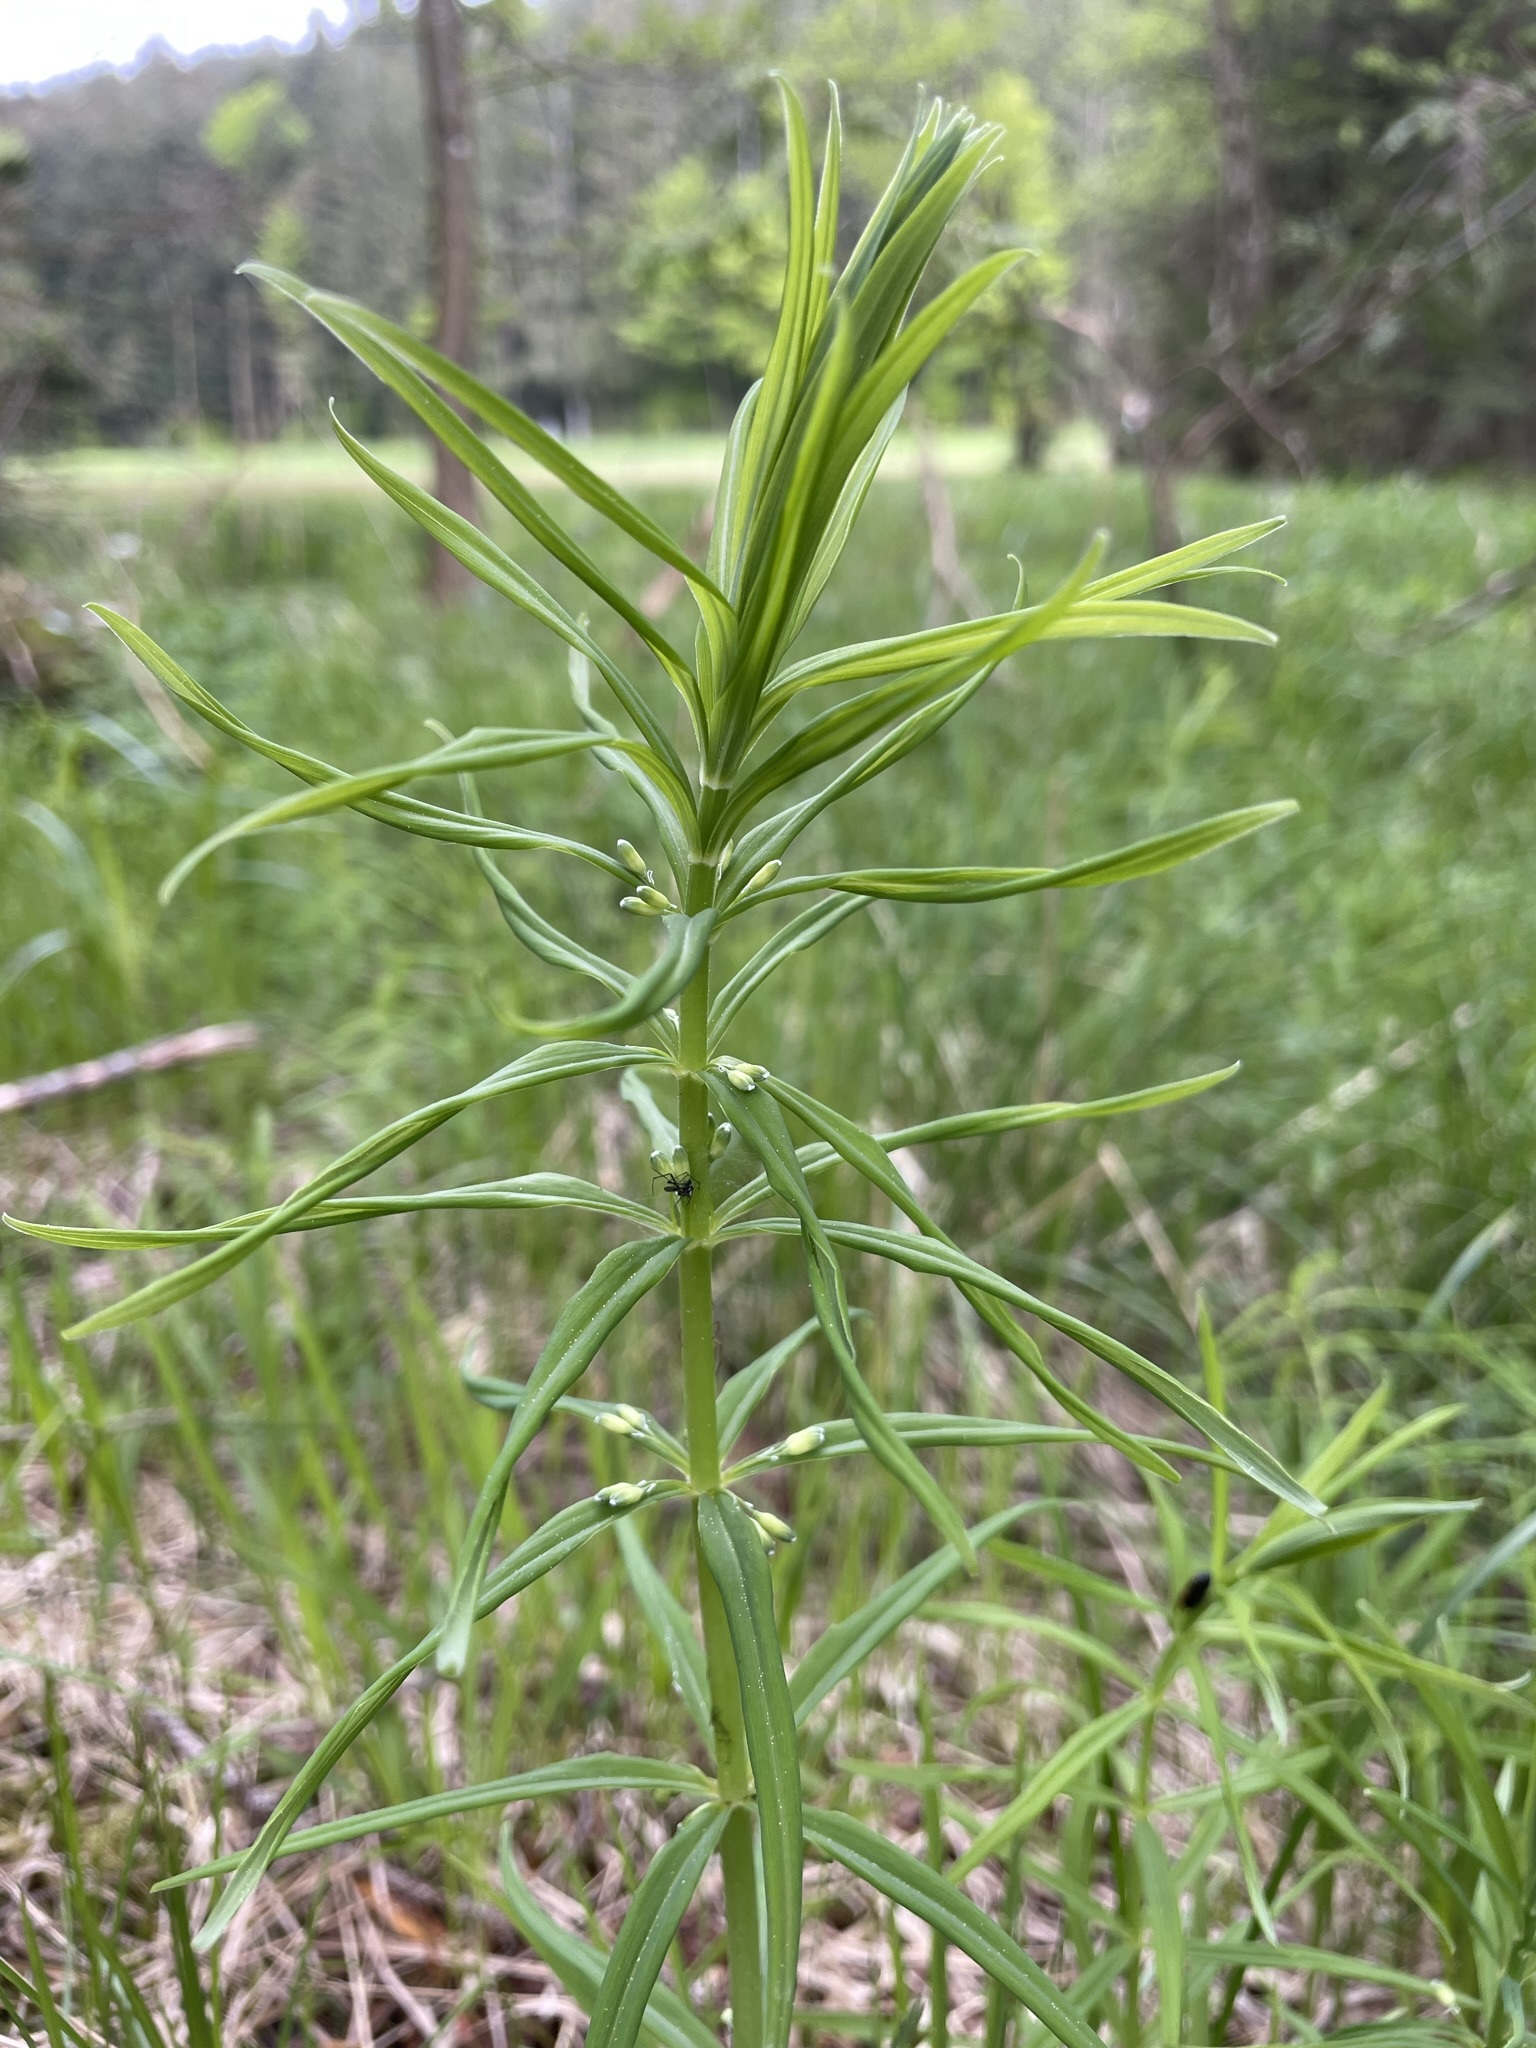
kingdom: Plantae
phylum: Tracheophyta
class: Liliopsida
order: Asparagales
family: Asparagaceae
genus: Polygonatum
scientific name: Polygonatum verticillatum
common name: Whorled solomon's-seal
